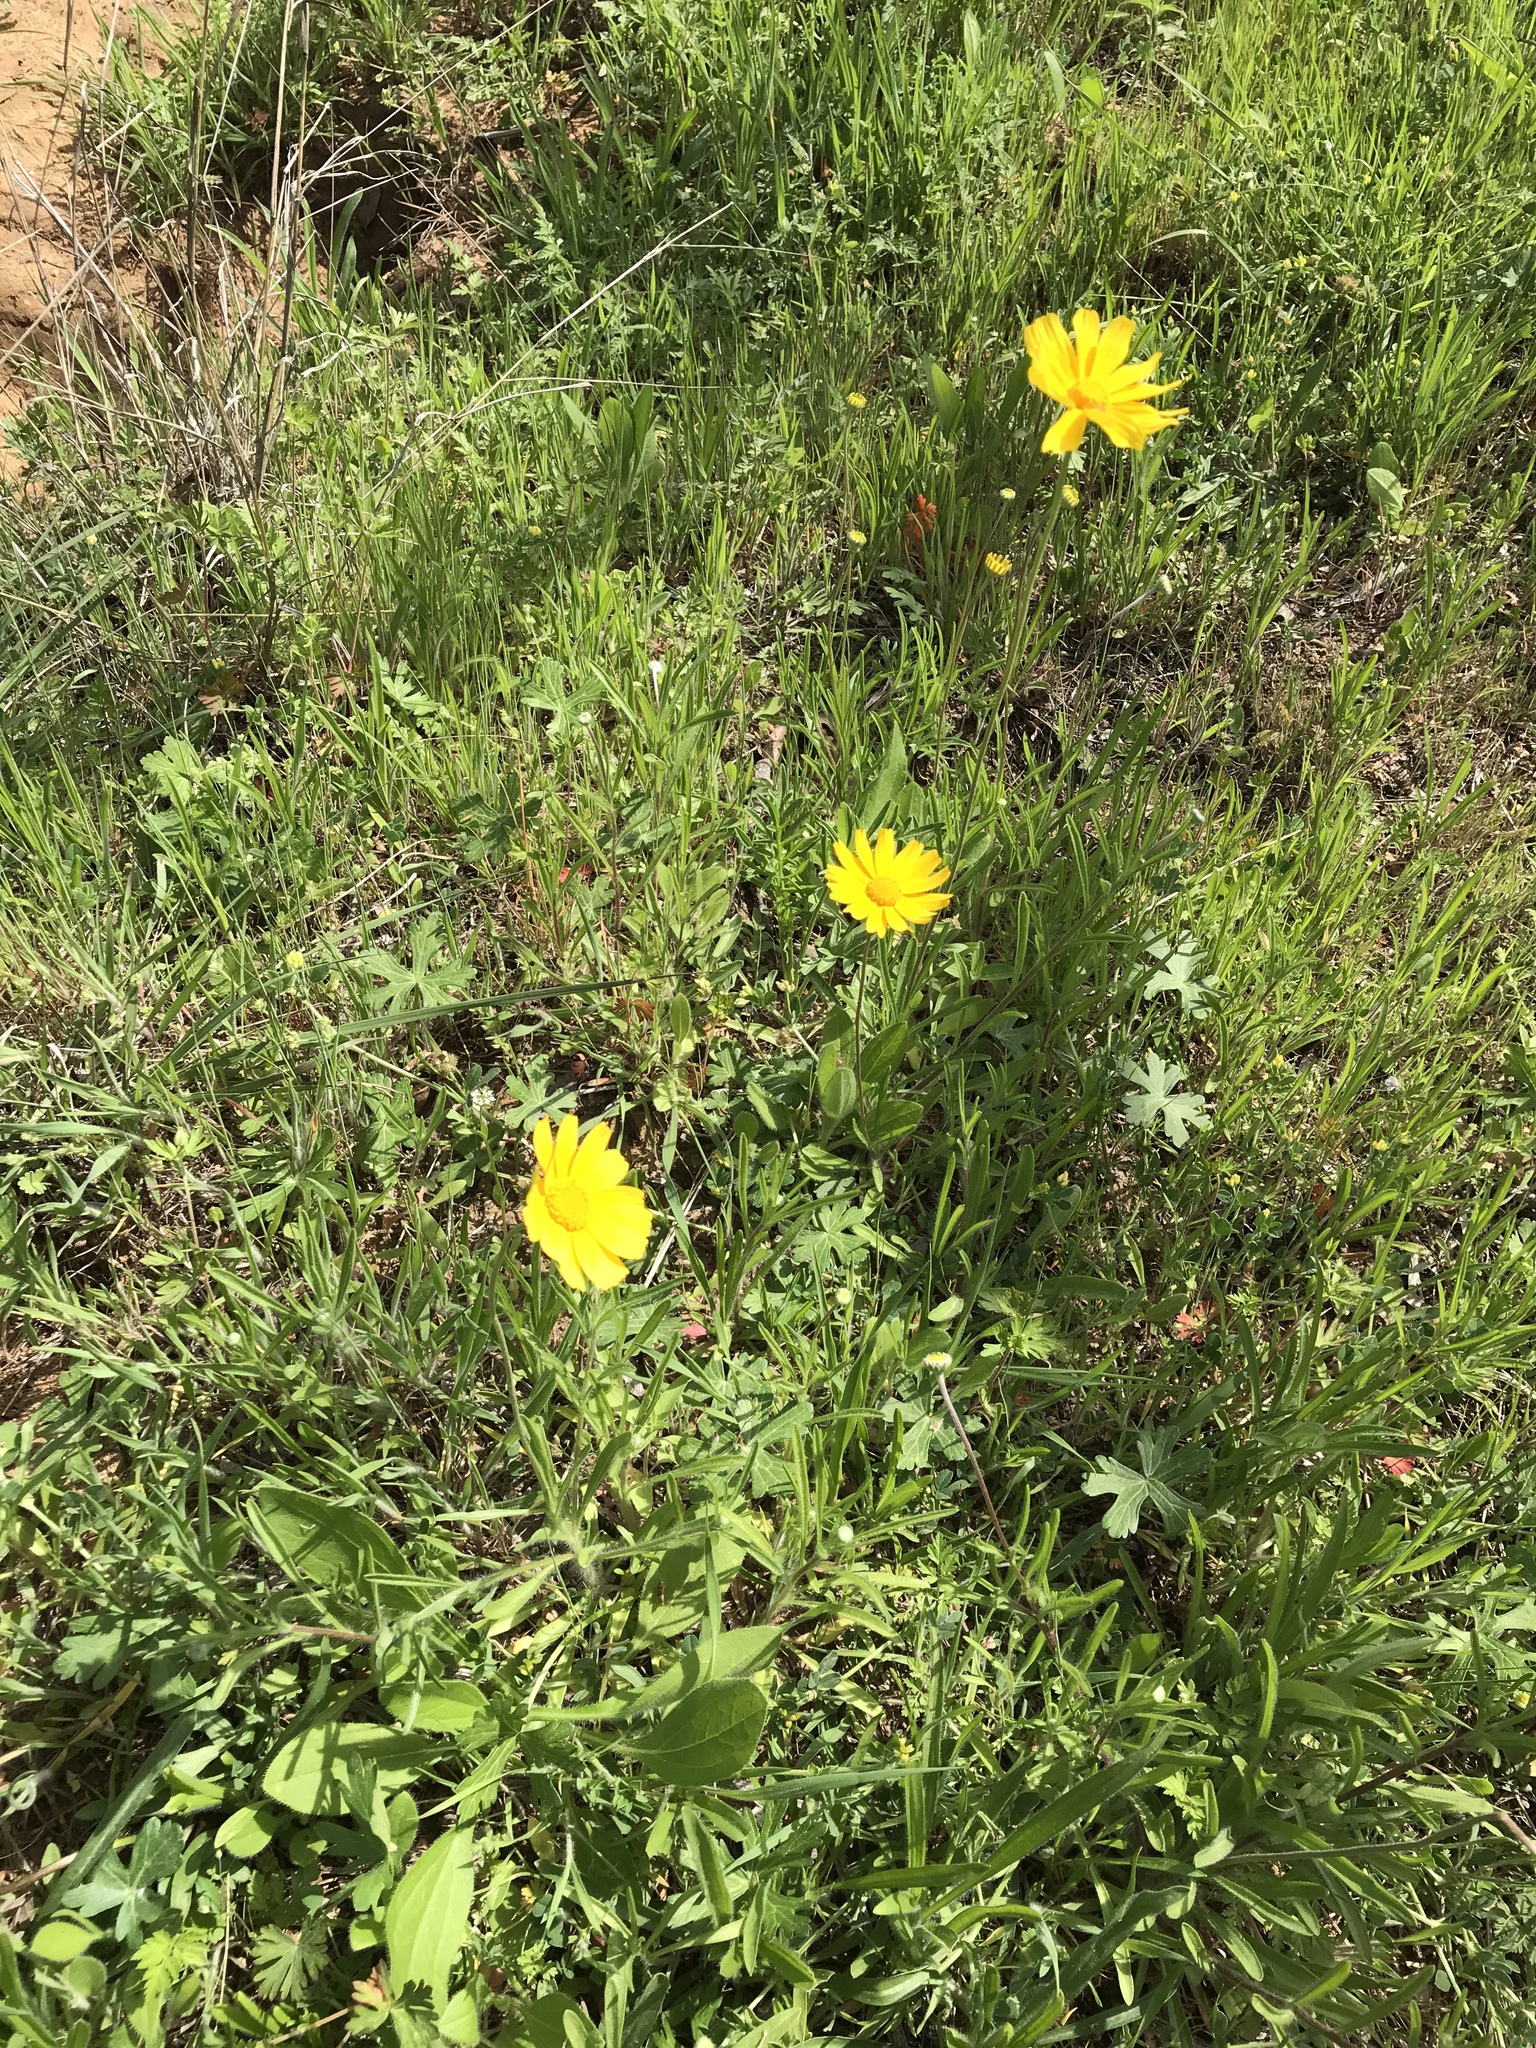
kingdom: Plantae
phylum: Tracheophyta
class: Magnoliopsida
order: Asterales
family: Asteraceae
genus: Tetraneuris
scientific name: Tetraneuris scaposa
